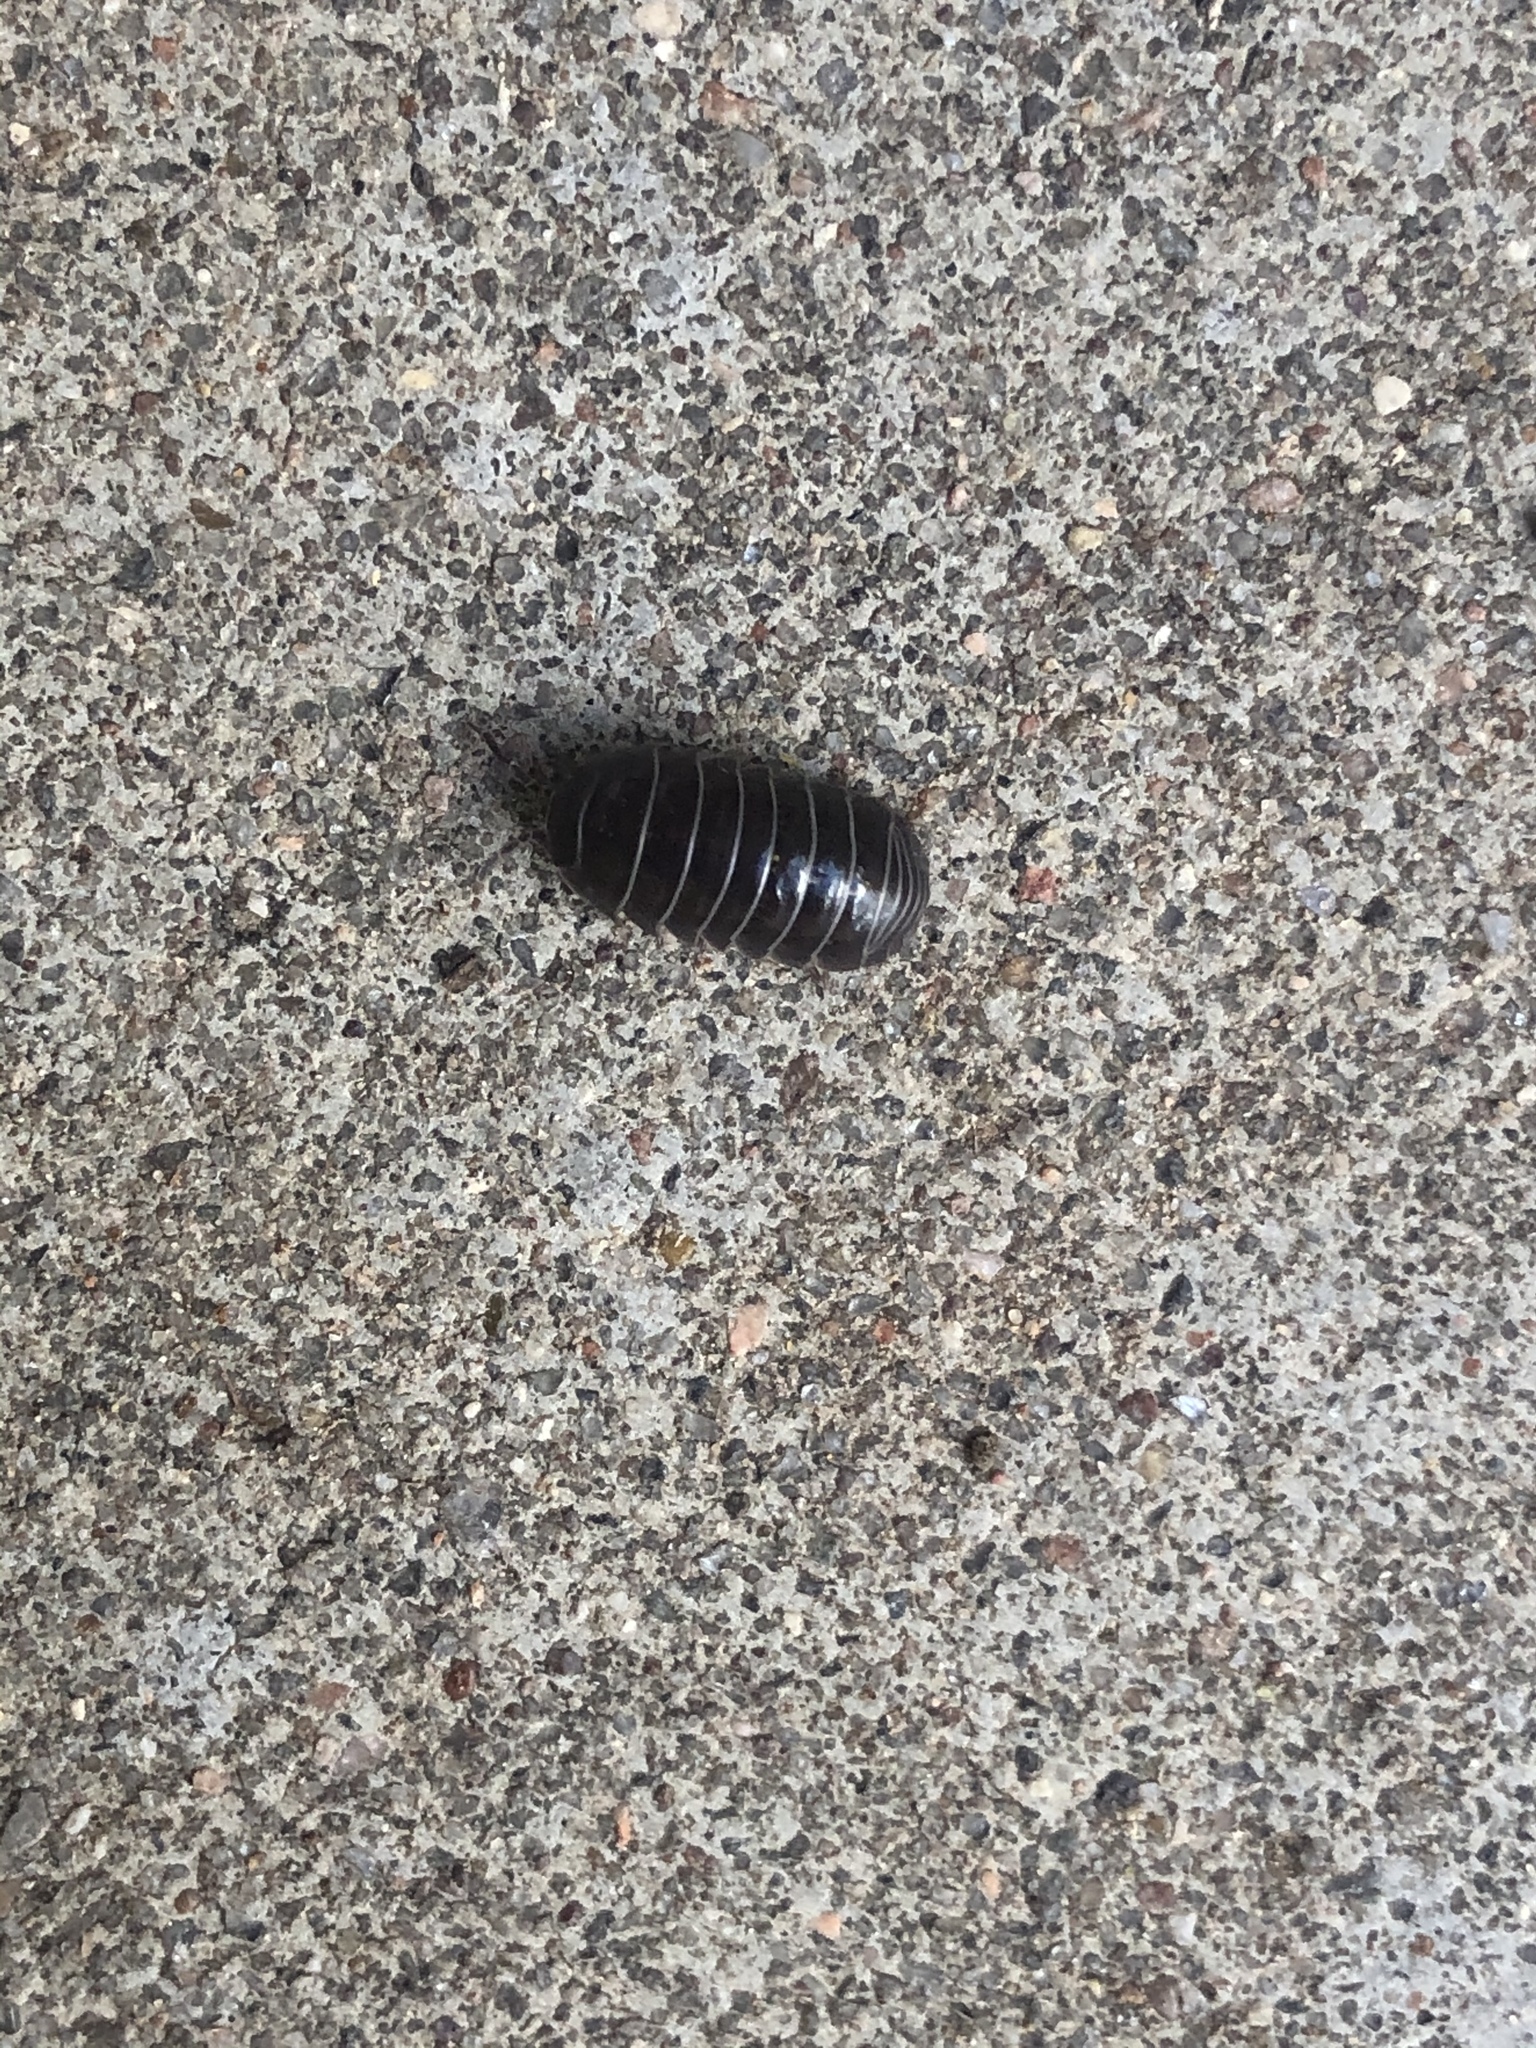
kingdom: Animalia
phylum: Arthropoda
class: Malacostraca
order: Isopoda
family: Armadillidiidae
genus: Armadillidium
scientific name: Armadillidium vulgare
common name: Common pill woodlouse
